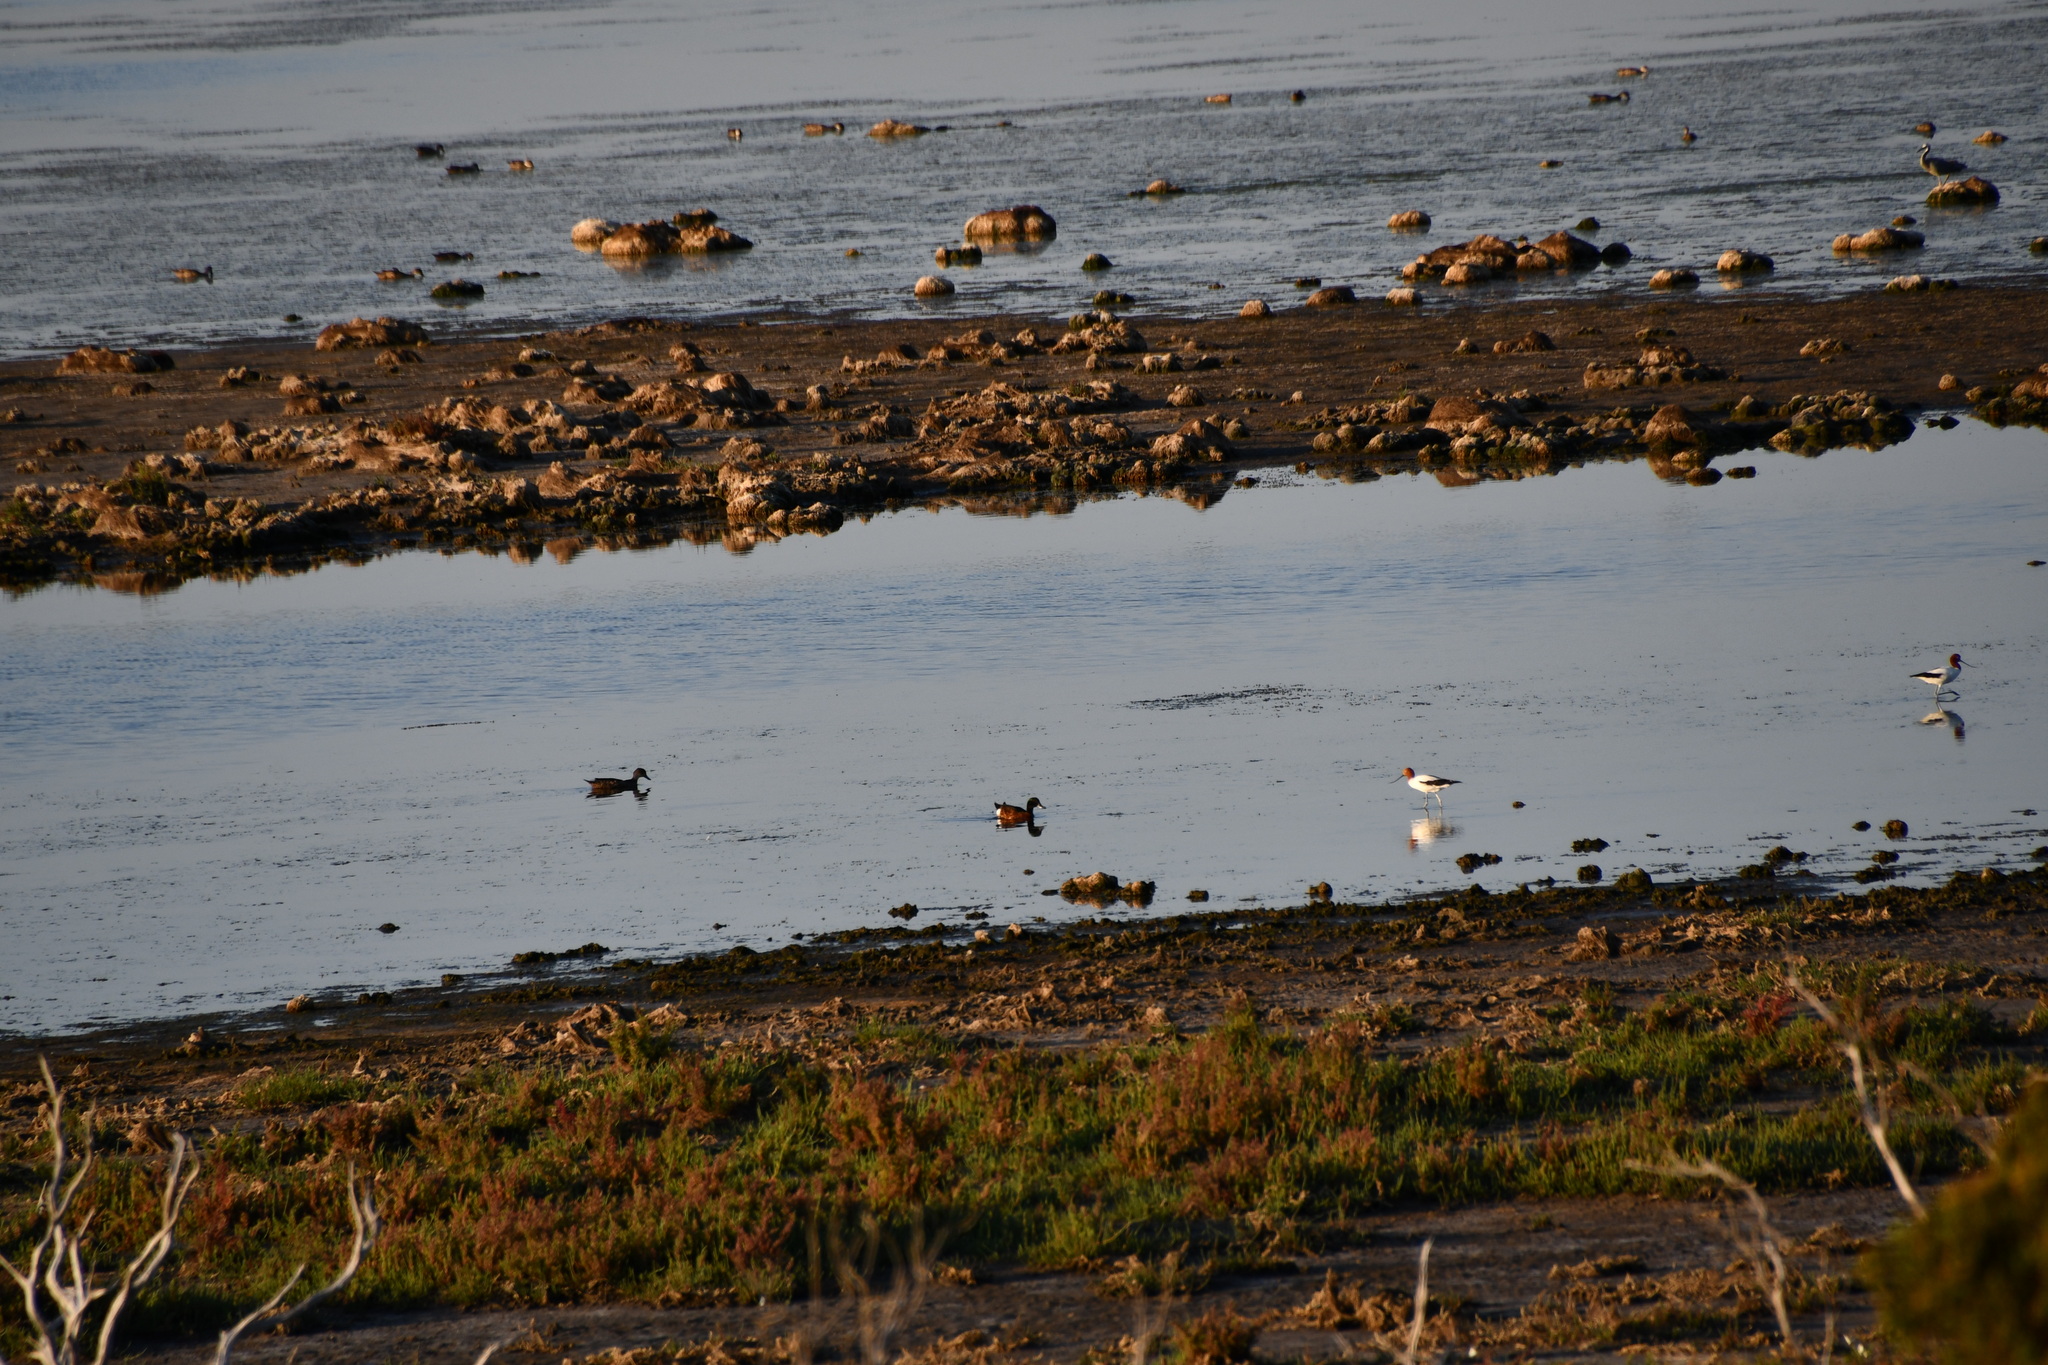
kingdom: Animalia
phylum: Chordata
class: Aves
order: Anseriformes
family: Anatidae
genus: Anas
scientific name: Anas castanea
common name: Chestnut teal
